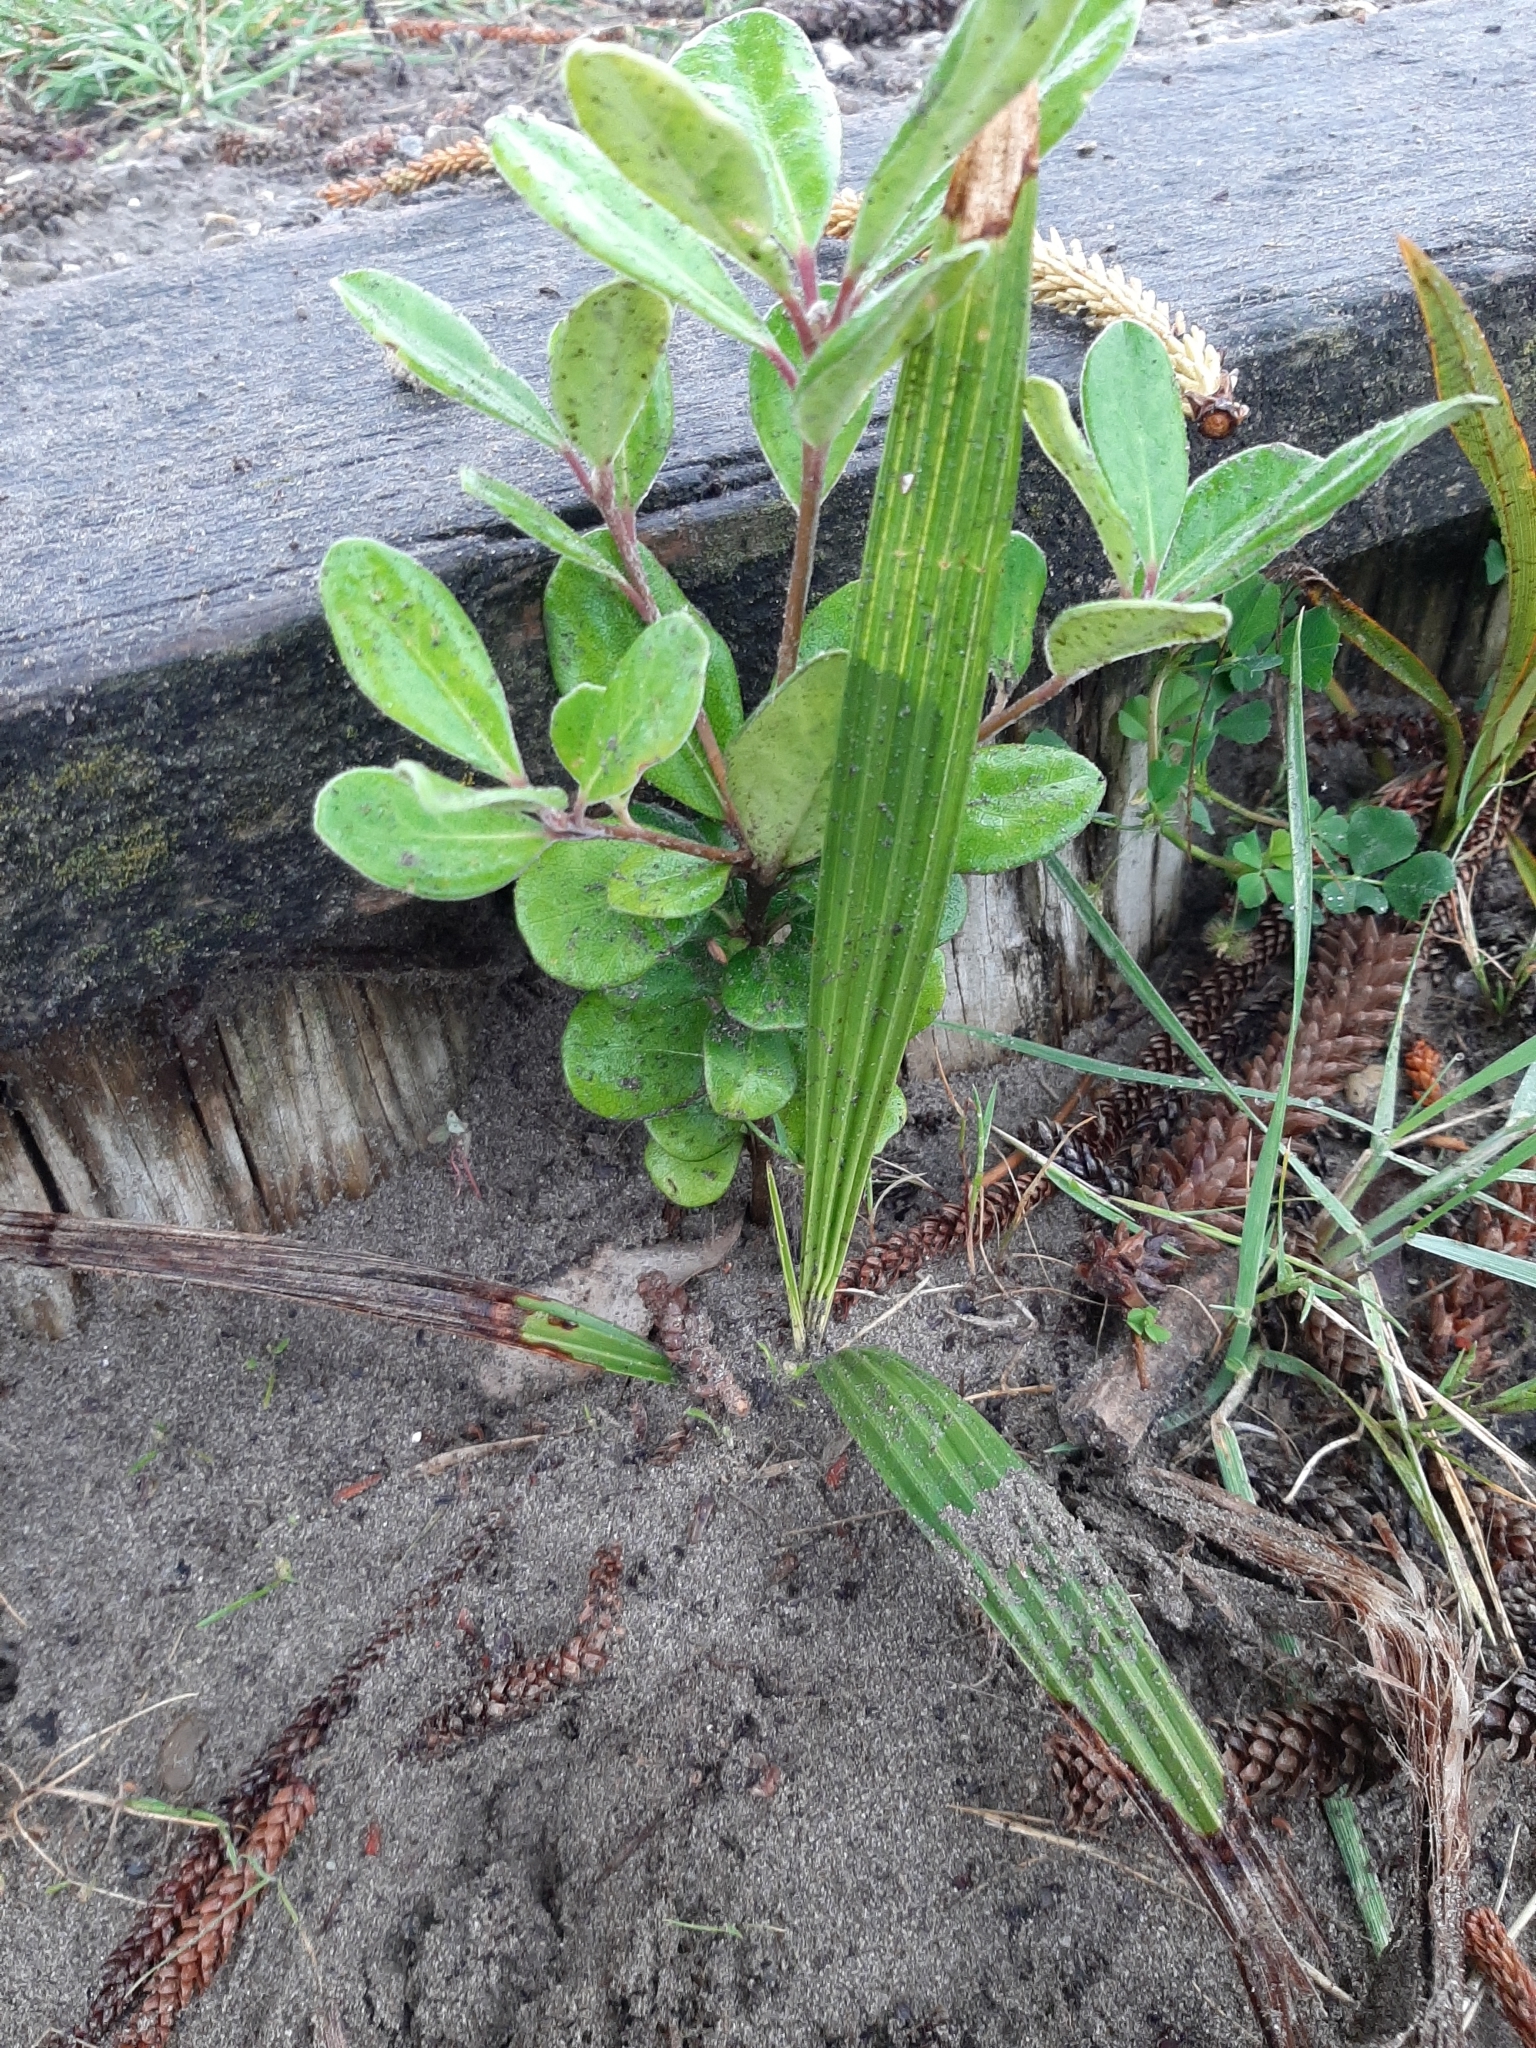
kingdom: Plantae
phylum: Tracheophyta
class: Liliopsida
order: Arecales
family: Arecaceae
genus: Trachycarpus
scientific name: Trachycarpus fortunei
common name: Chusan palm
